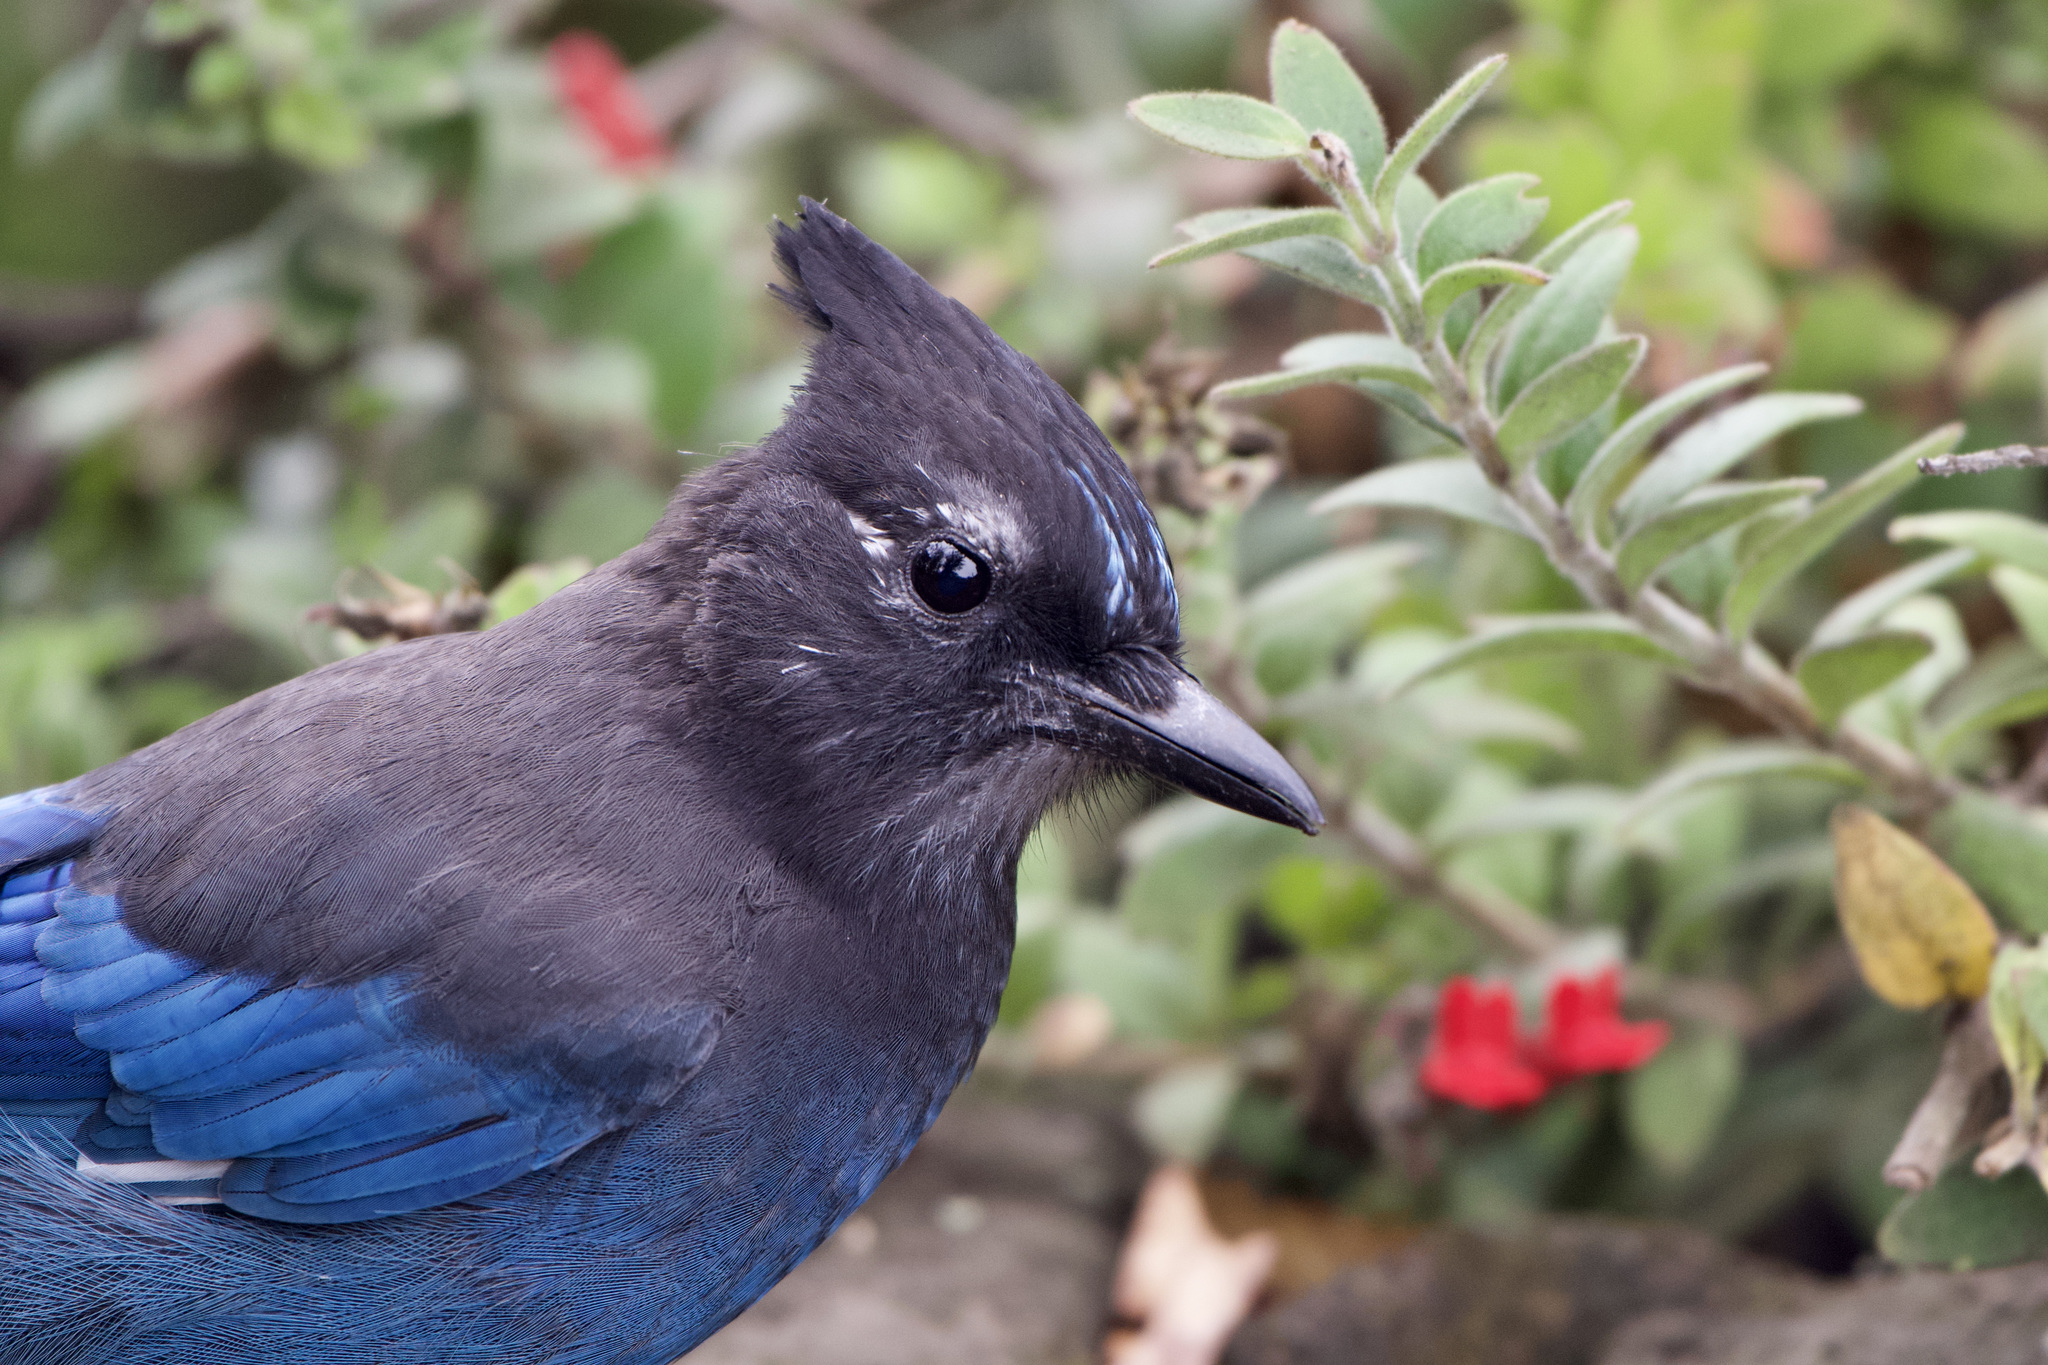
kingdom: Animalia
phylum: Chordata
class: Aves
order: Passeriformes
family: Corvidae
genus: Cyanocitta
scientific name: Cyanocitta stelleri
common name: Steller's jay
